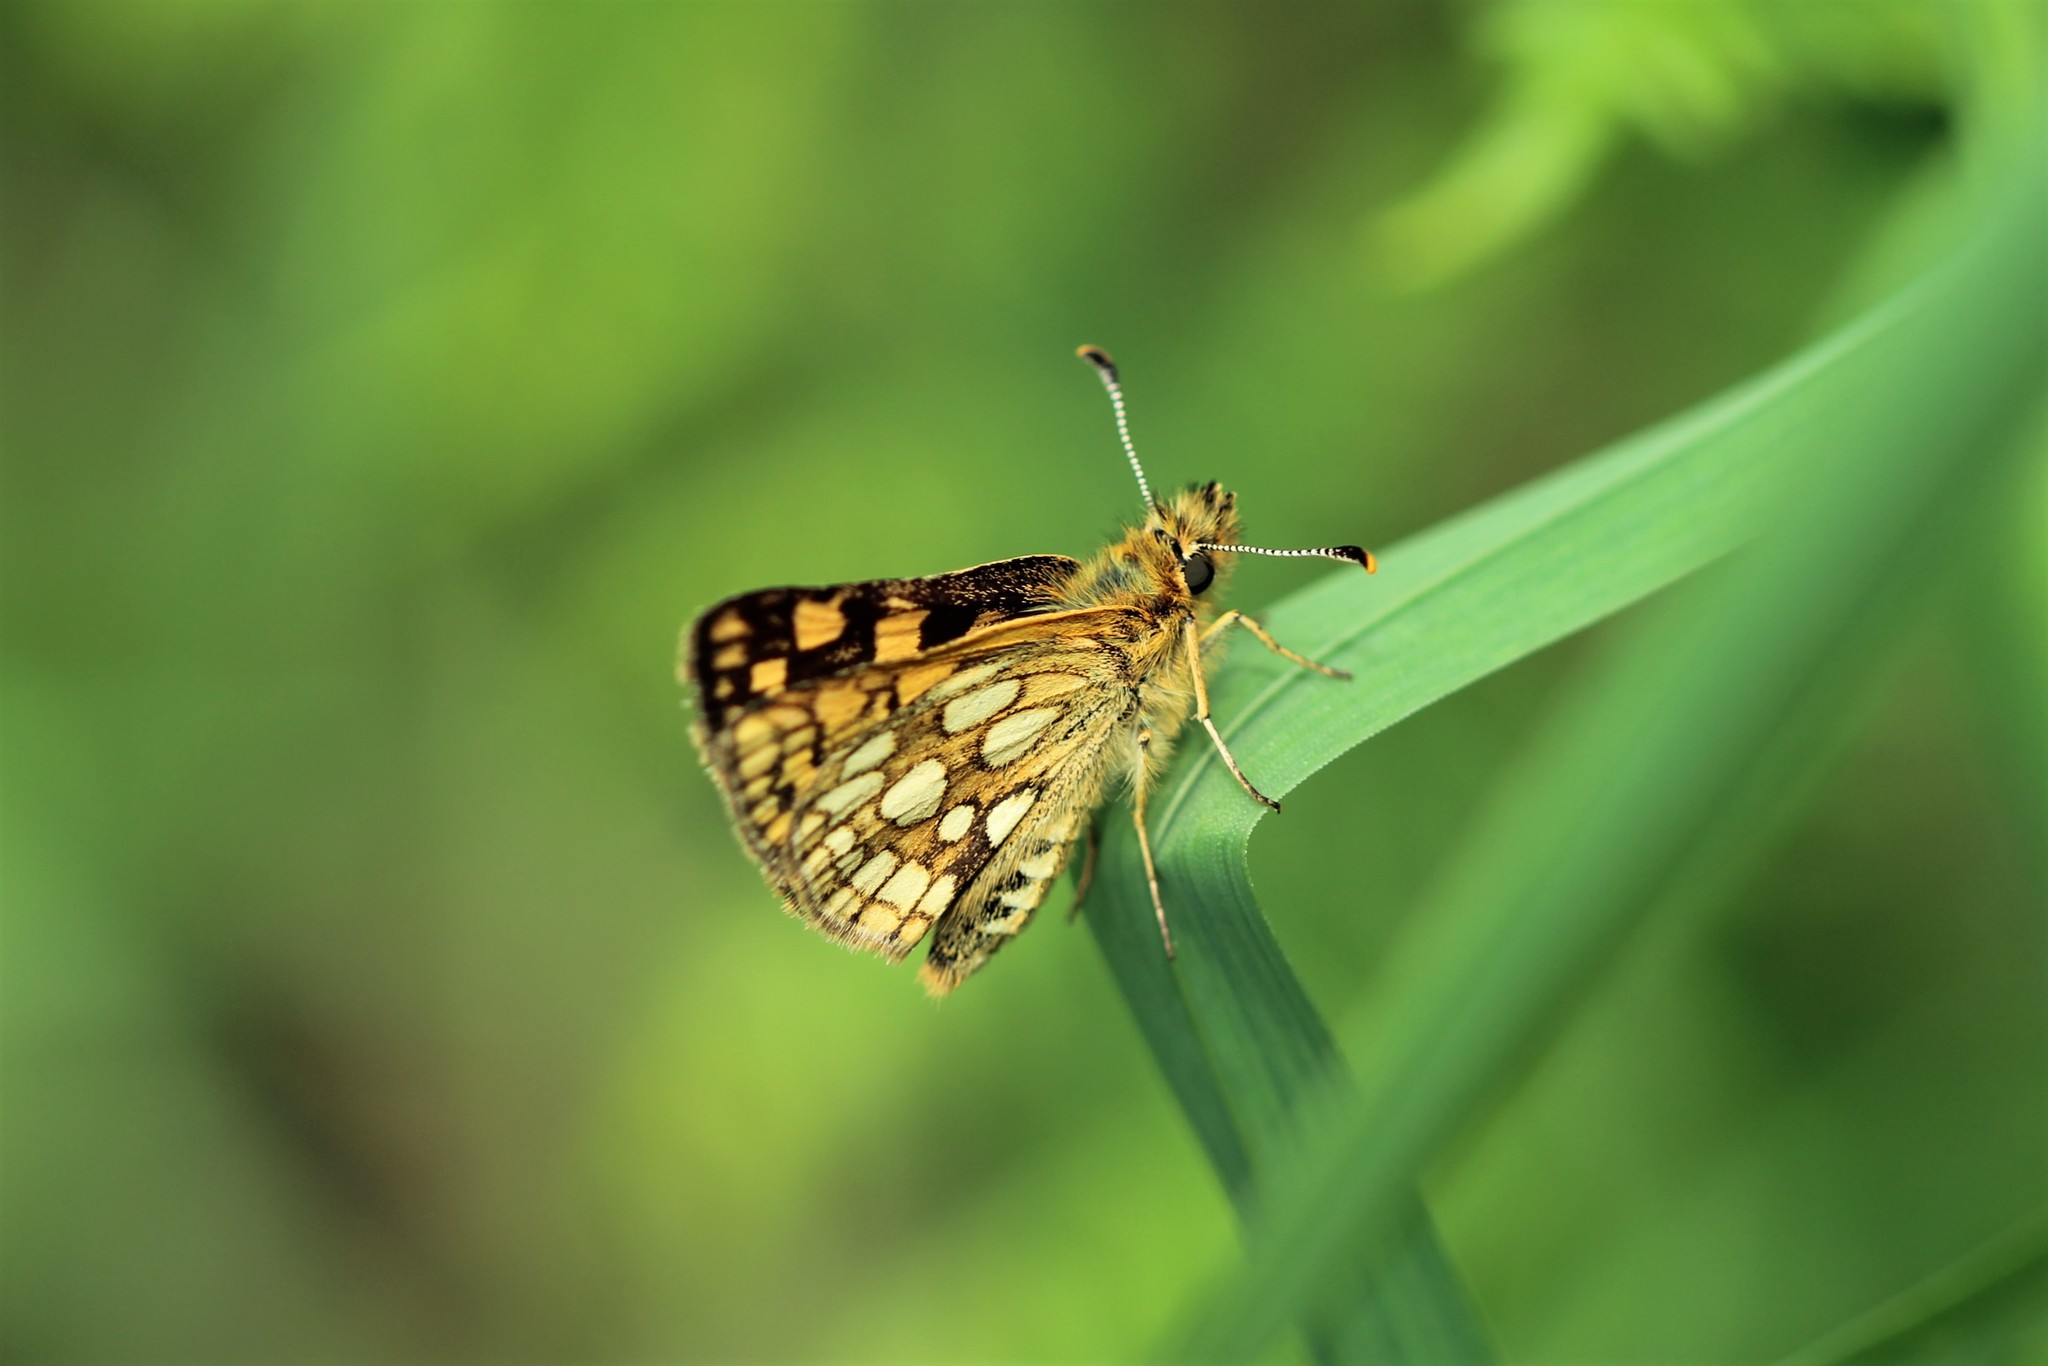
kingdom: Animalia
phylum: Arthropoda
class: Insecta
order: Lepidoptera
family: Hesperiidae
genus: Carterocephalus
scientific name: Carterocephalus skada
